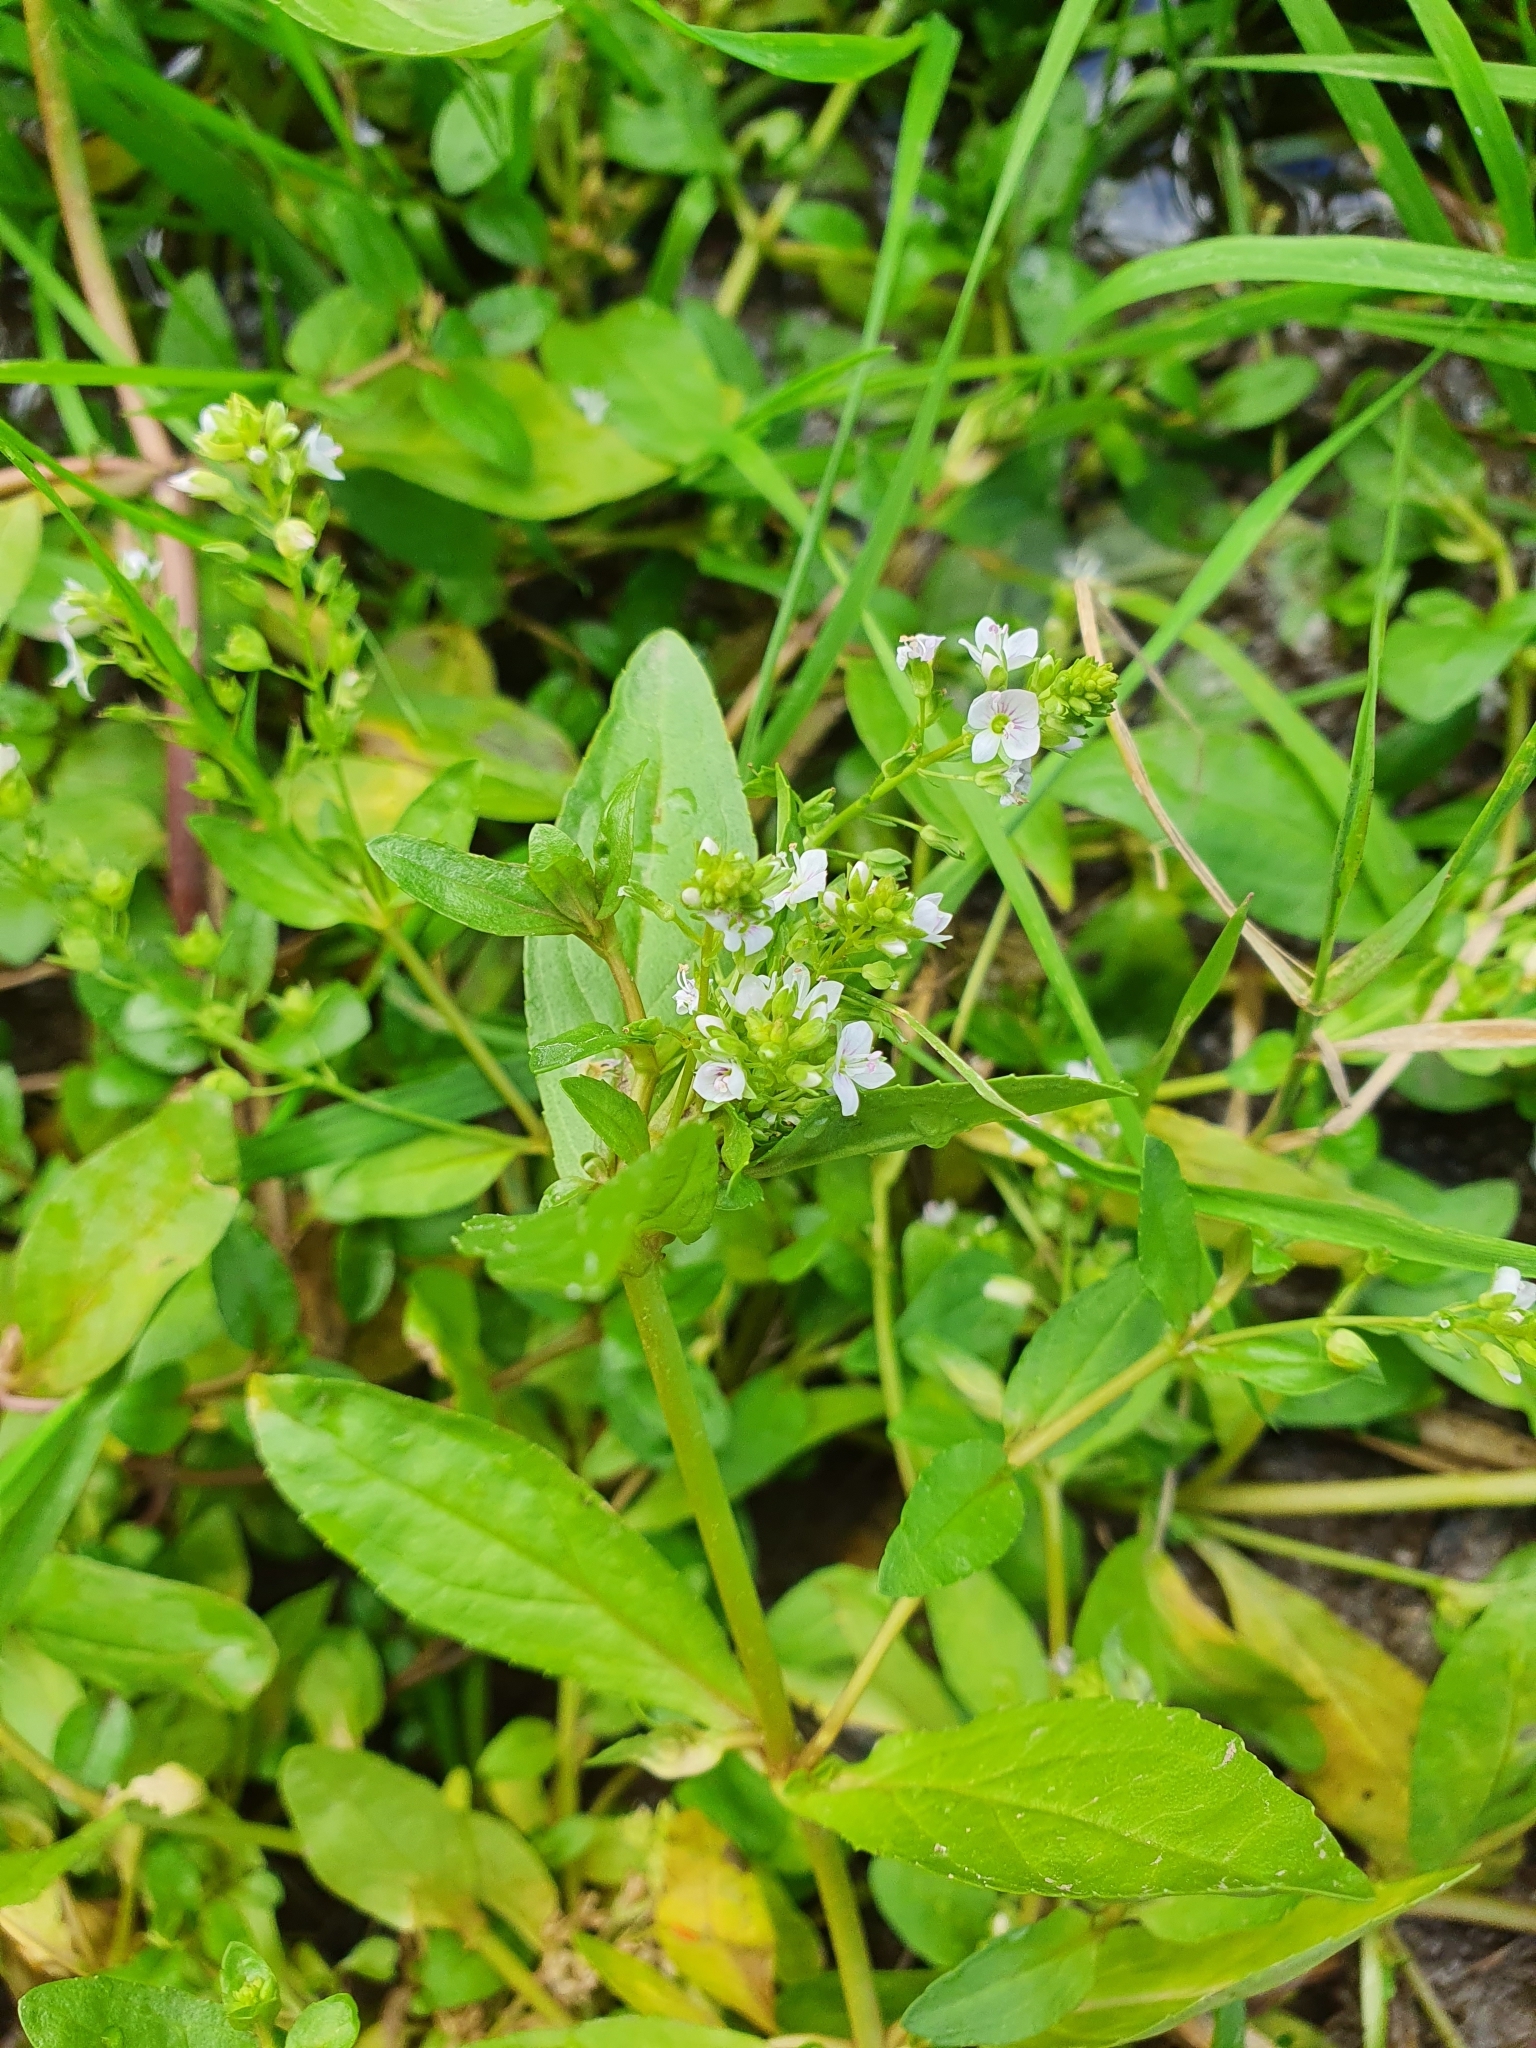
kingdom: Plantae
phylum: Tracheophyta
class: Magnoliopsida
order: Lamiales
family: Plantaginaceae
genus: Veronica
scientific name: Veronica anagallis-aquatica
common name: Water speedwell
